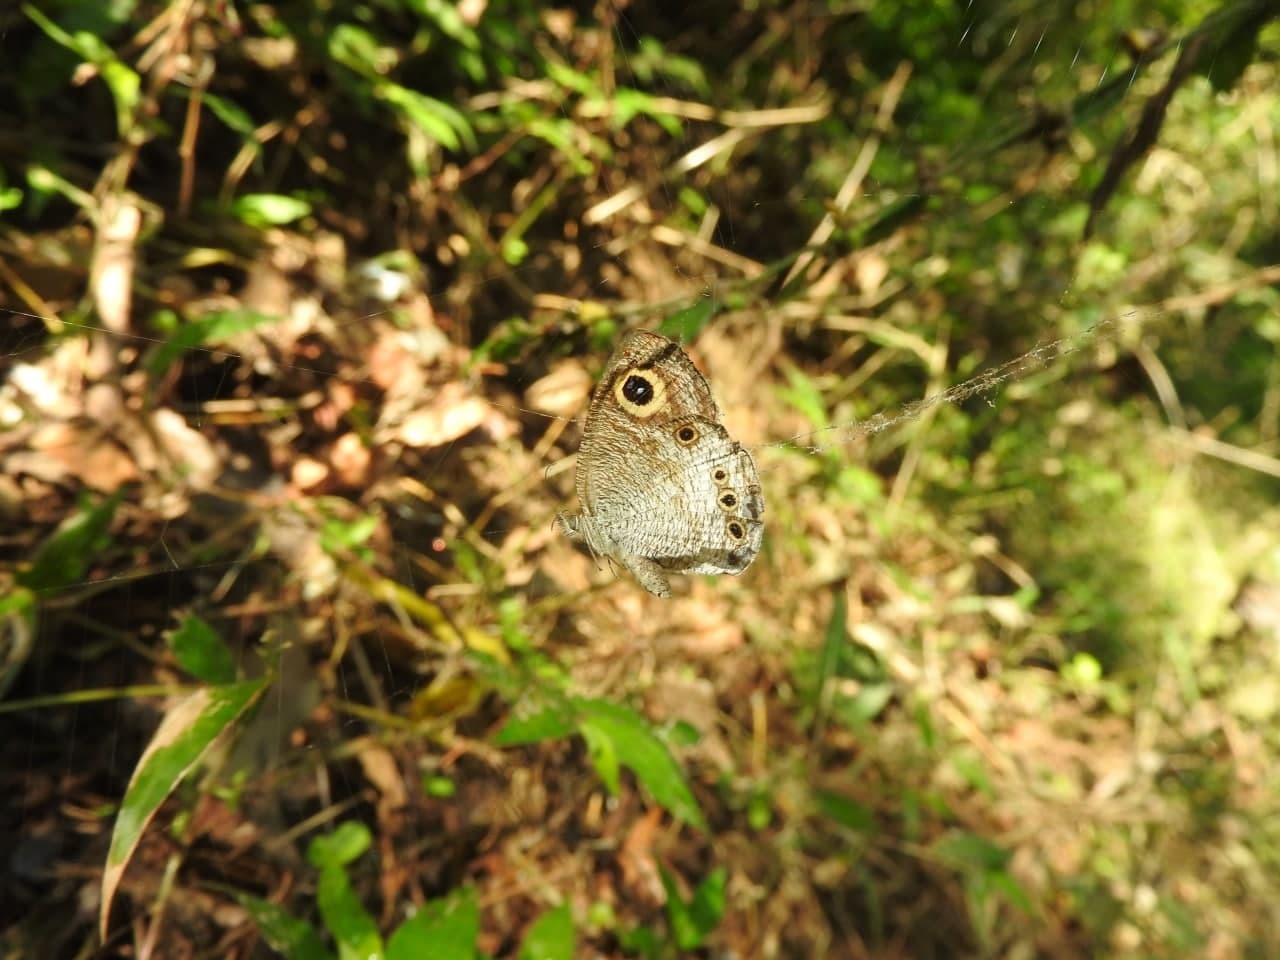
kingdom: Animalia
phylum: Arthropoda
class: Insecta
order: Lepidoptera
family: Nymphalidae
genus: Ypthima
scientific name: Ypthima ceylonica
